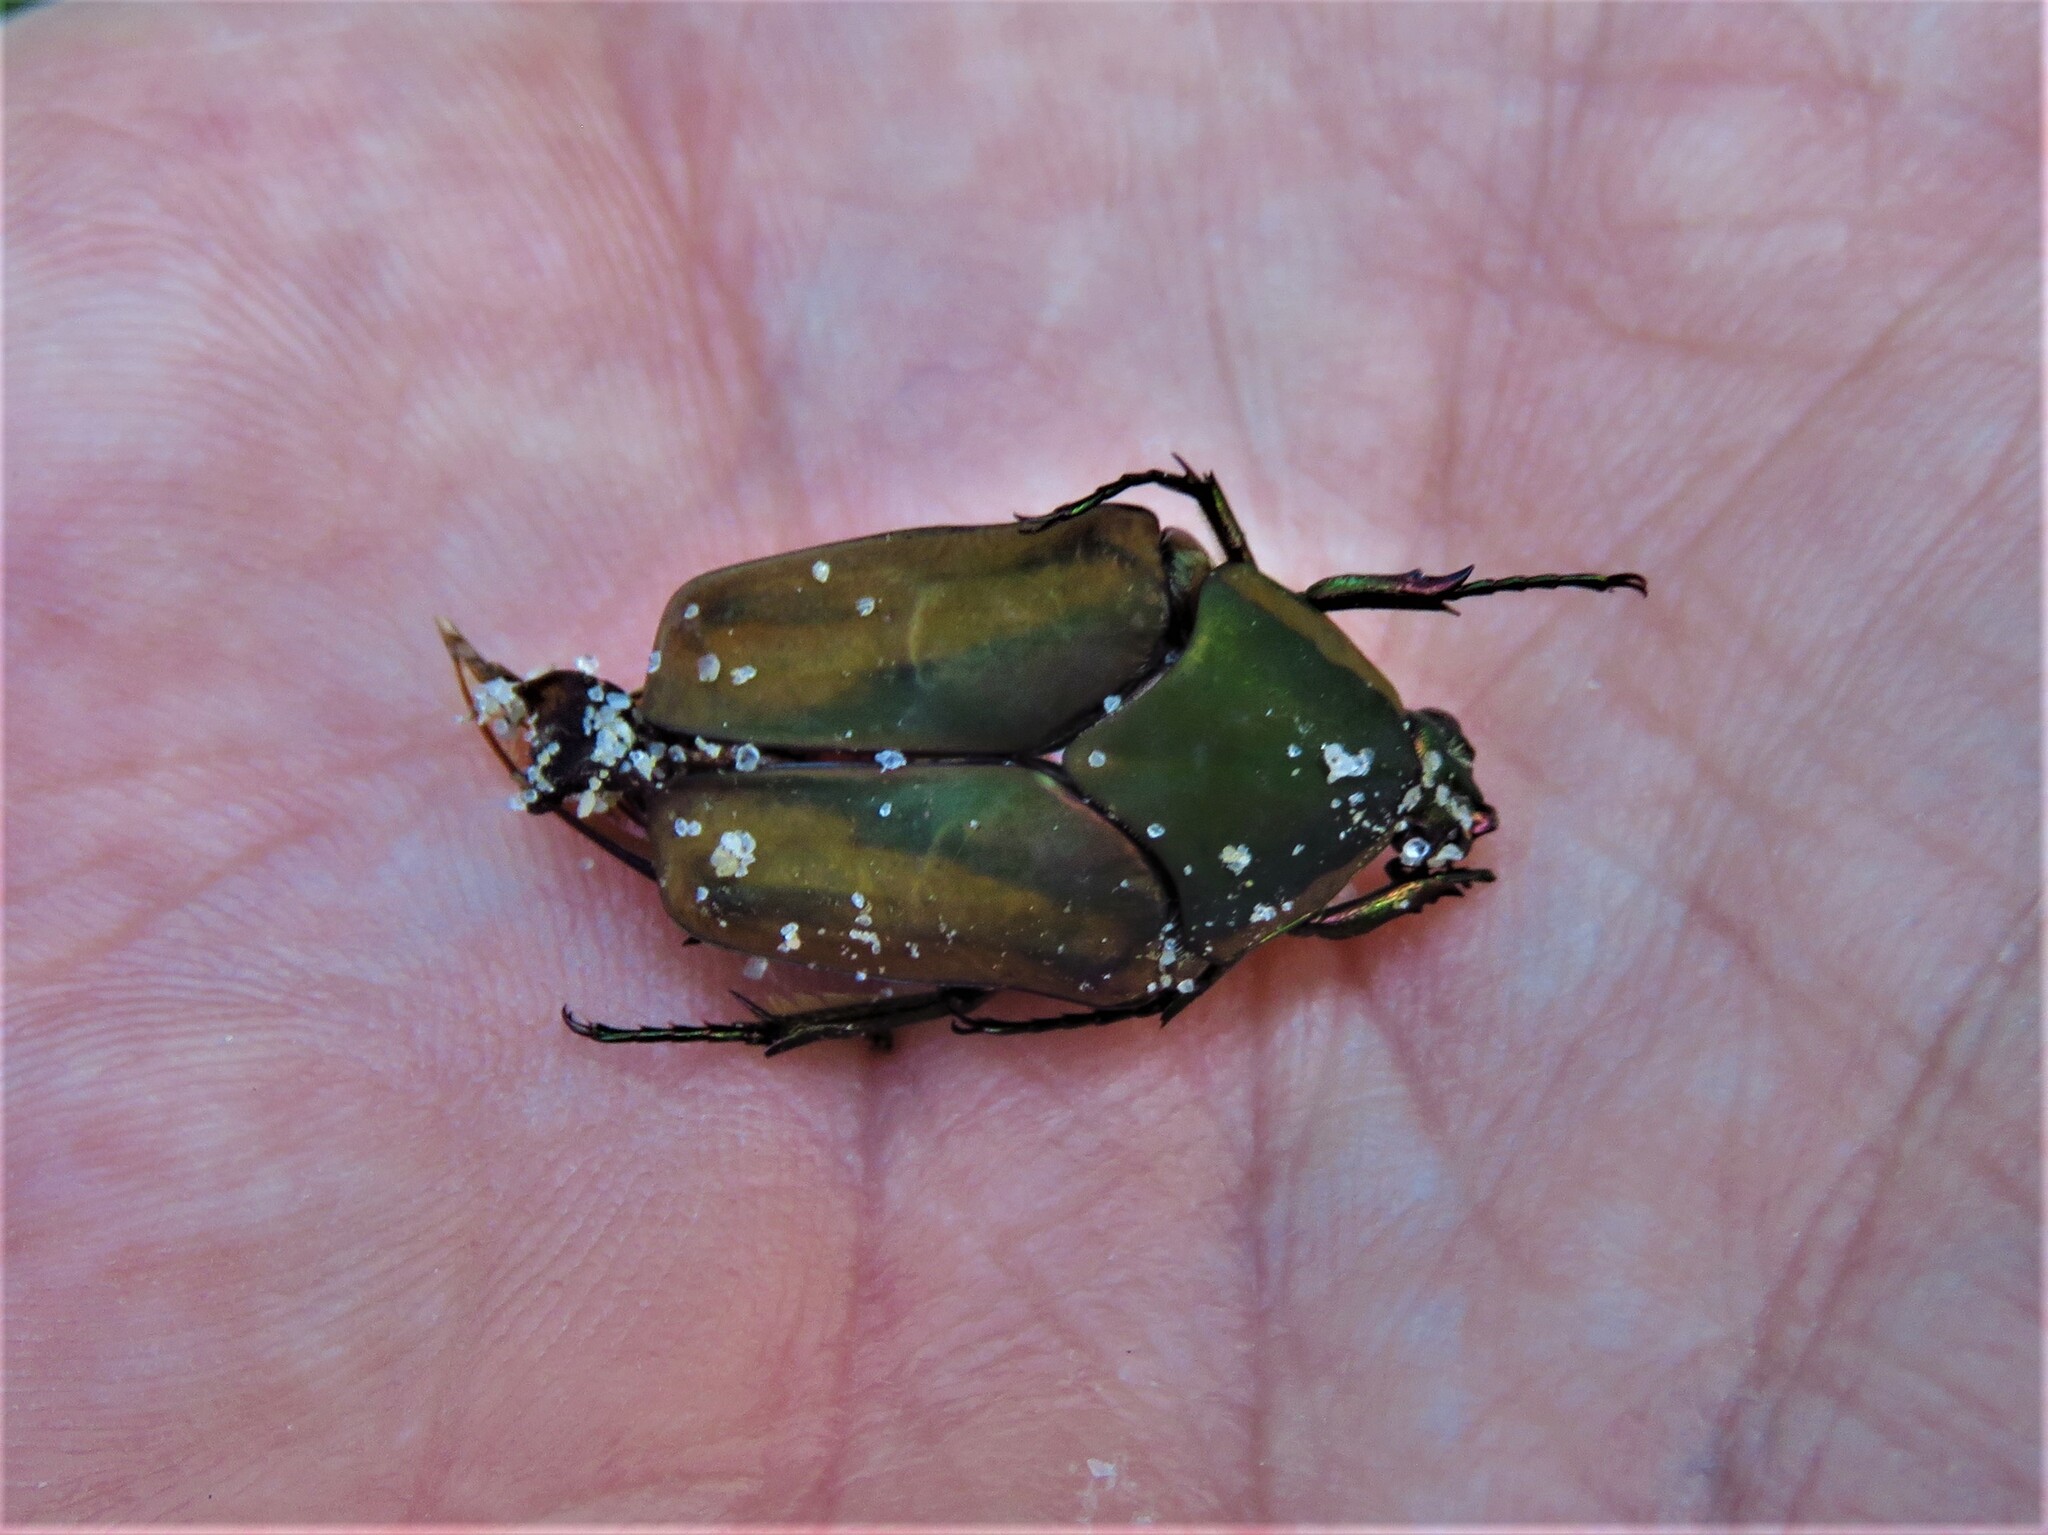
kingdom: Animalia
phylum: Arthropoda
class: Insecta
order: Coleoptera
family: Scarabaeidae
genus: Cotinis
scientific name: Cotinis nitida
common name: Common green june beetle
